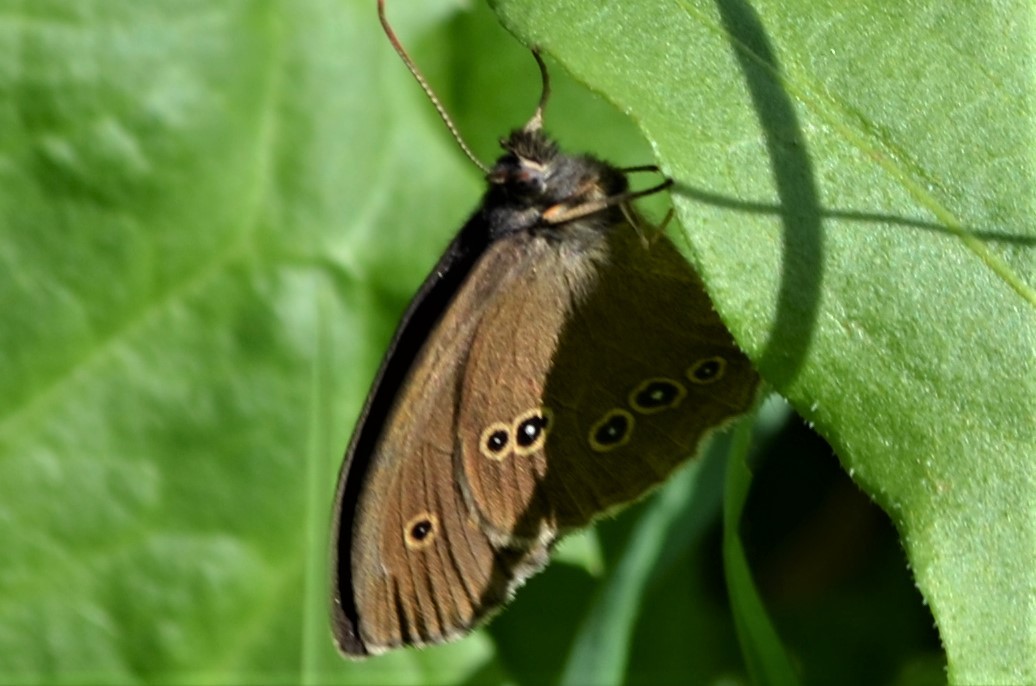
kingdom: Animalia
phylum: Arthropoda
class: Insecta
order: Lepidoptera
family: Nymphalidae
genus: Aphantopus
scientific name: Aphantopus hyperantus
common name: Ringlet
